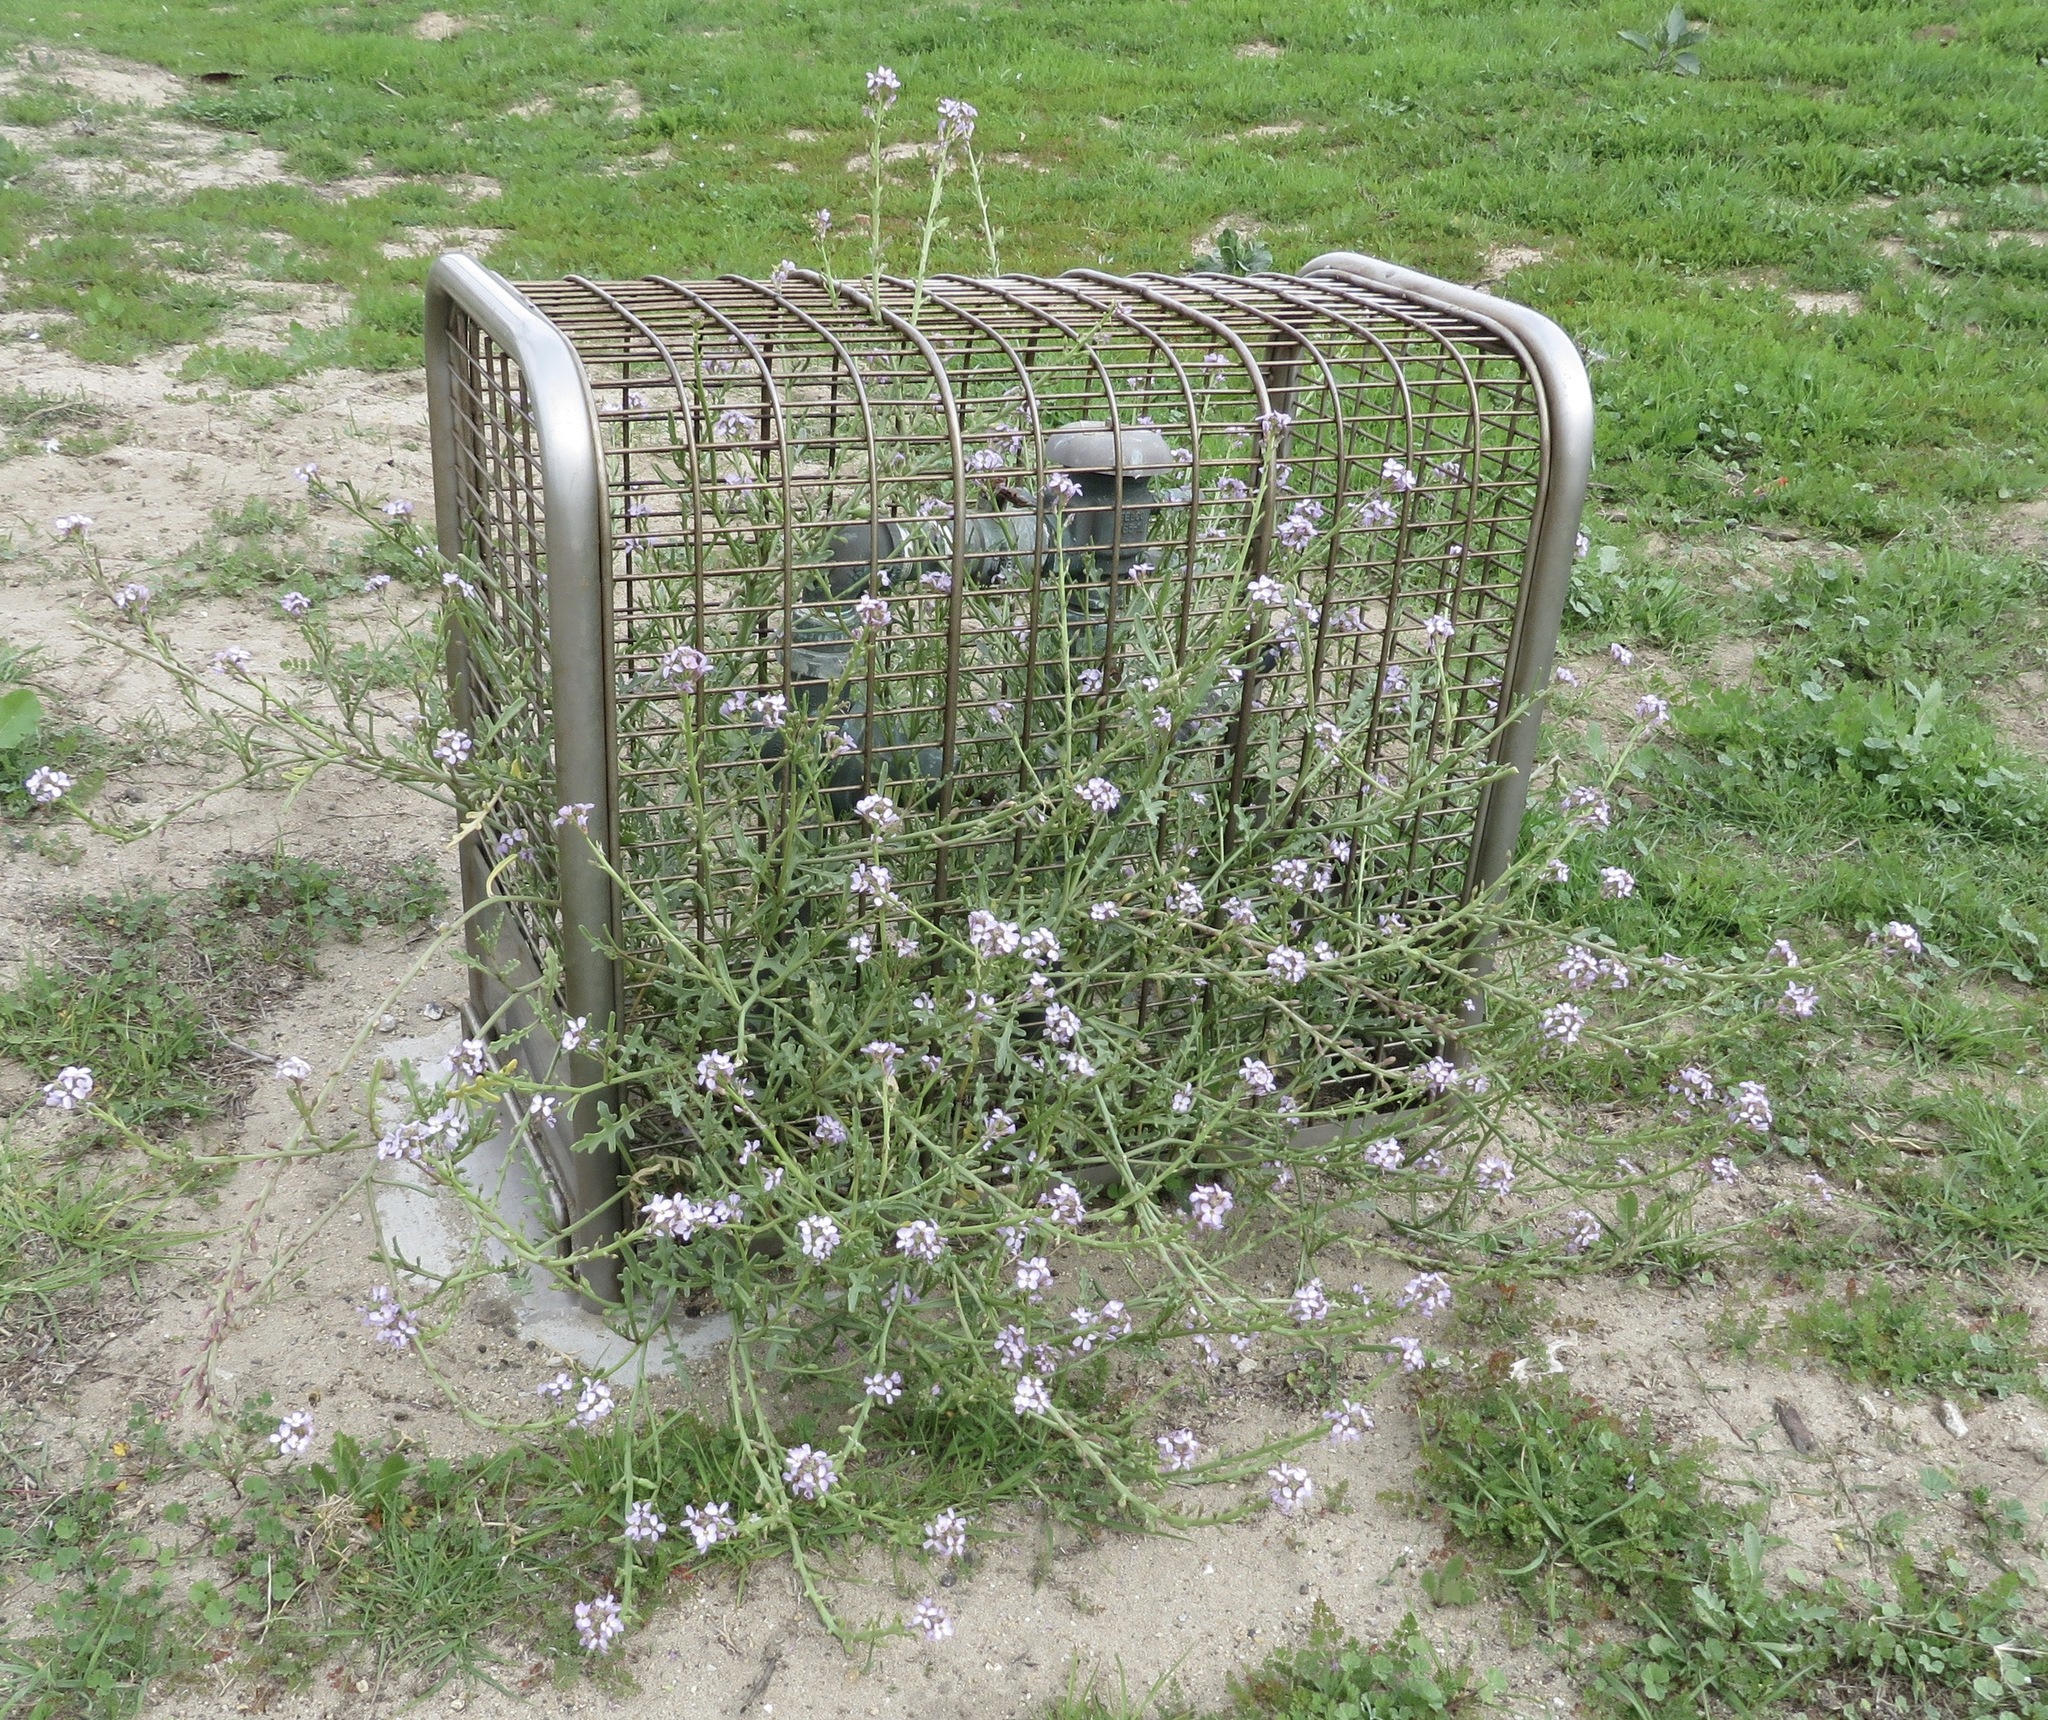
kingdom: Plantae
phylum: Tracheophyta
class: Magnoliopsida
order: Brassicales
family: Brassicaceae
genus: Cakile
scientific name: Cakile maritima
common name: Sea rocket
